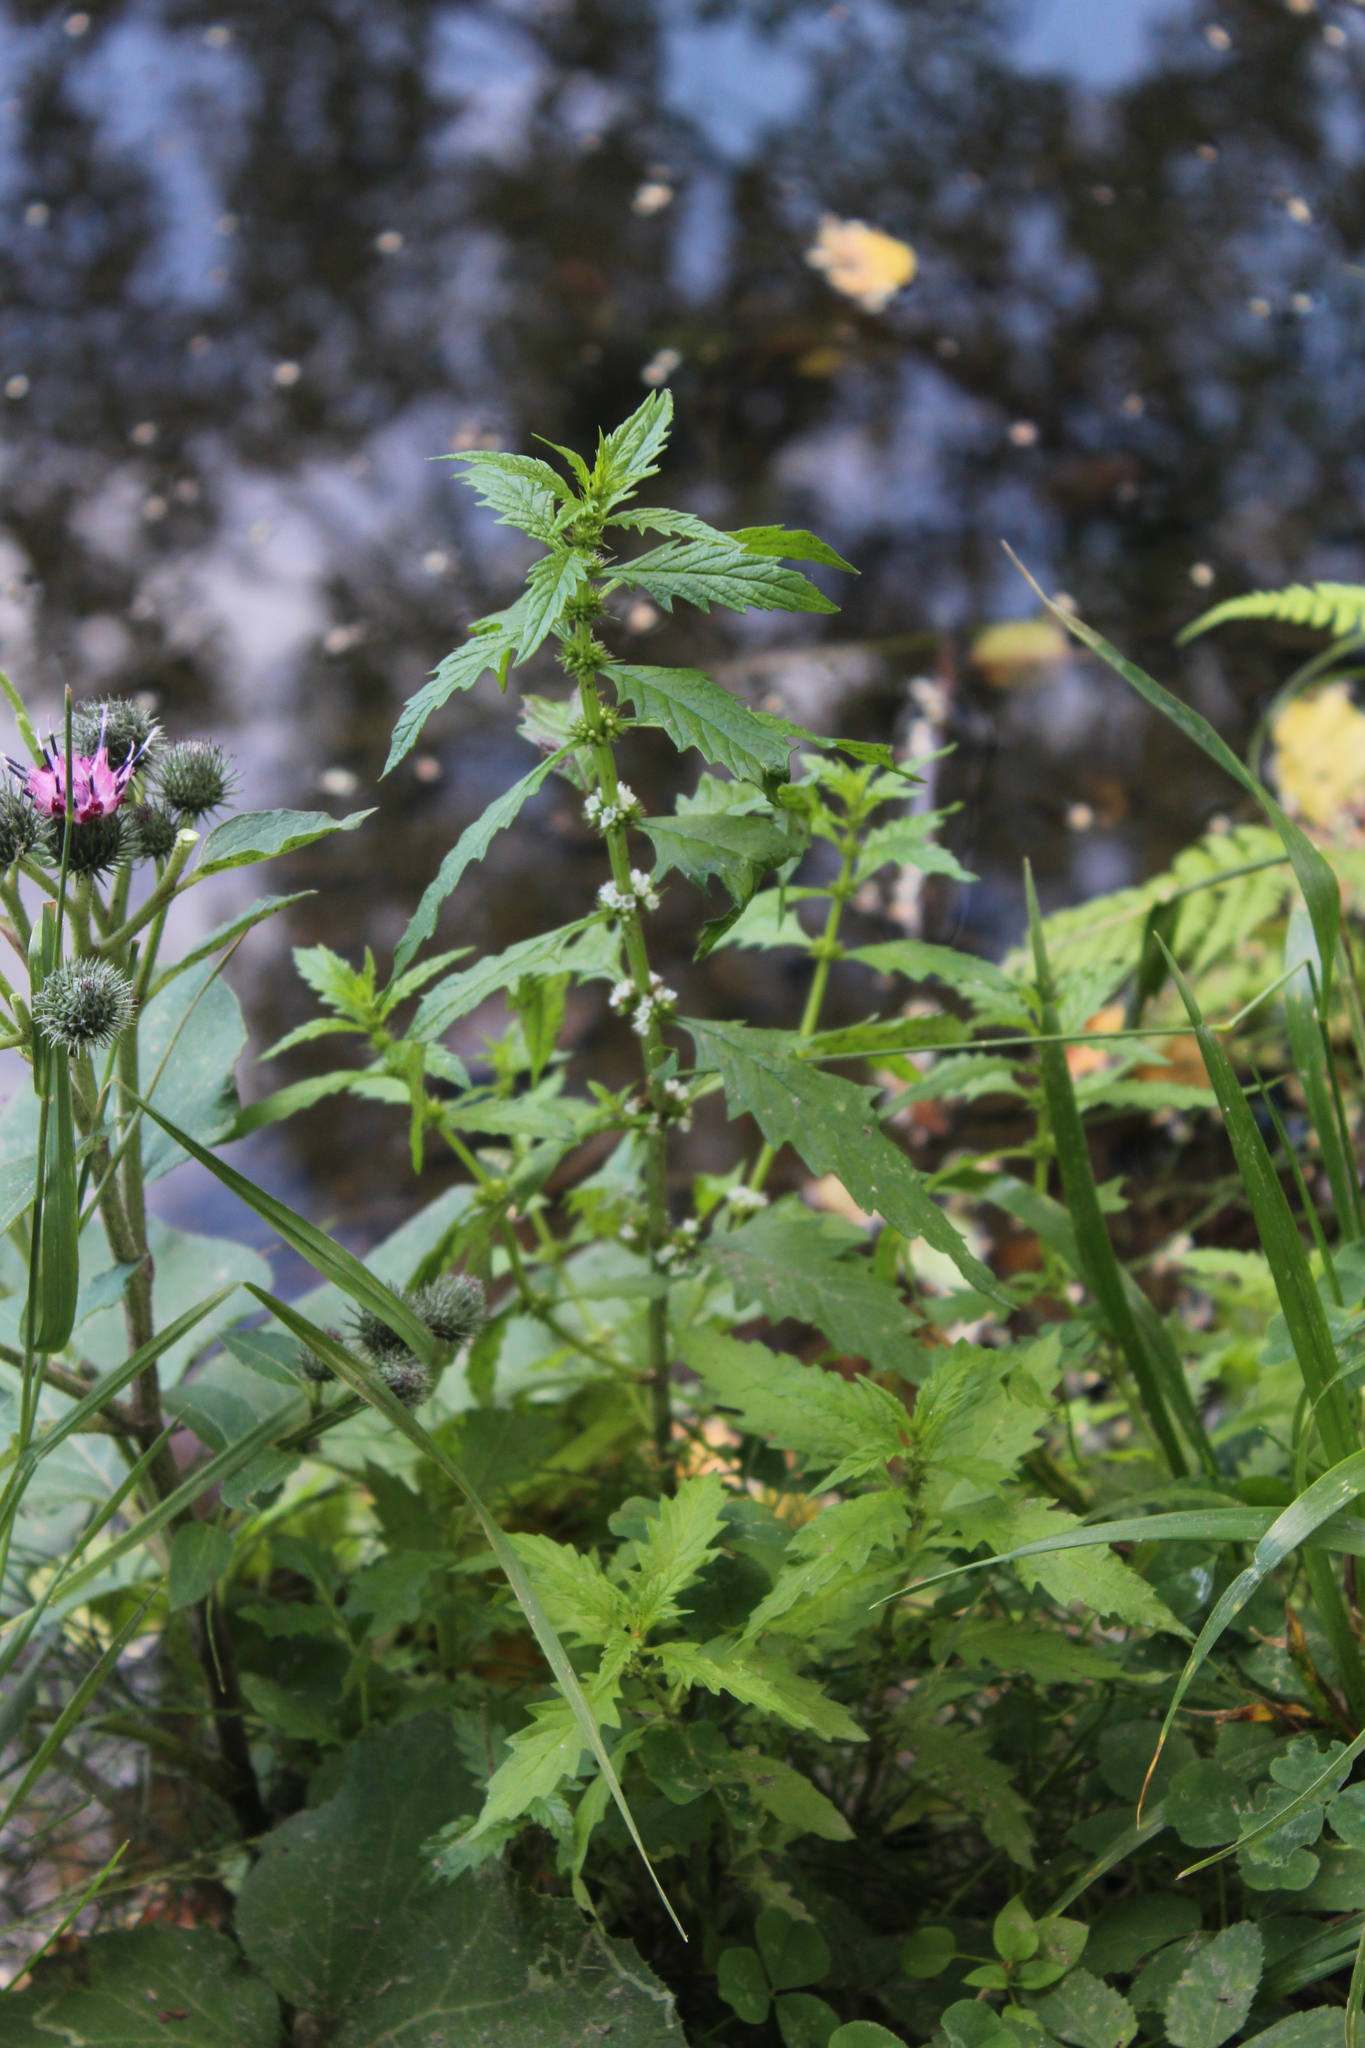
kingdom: Plantae
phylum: Tracheophyta
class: Magnoliopsida
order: Lamiales
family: Lamiaceae
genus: Lycopus
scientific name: Lycopus europaeus
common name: European bugleweed
